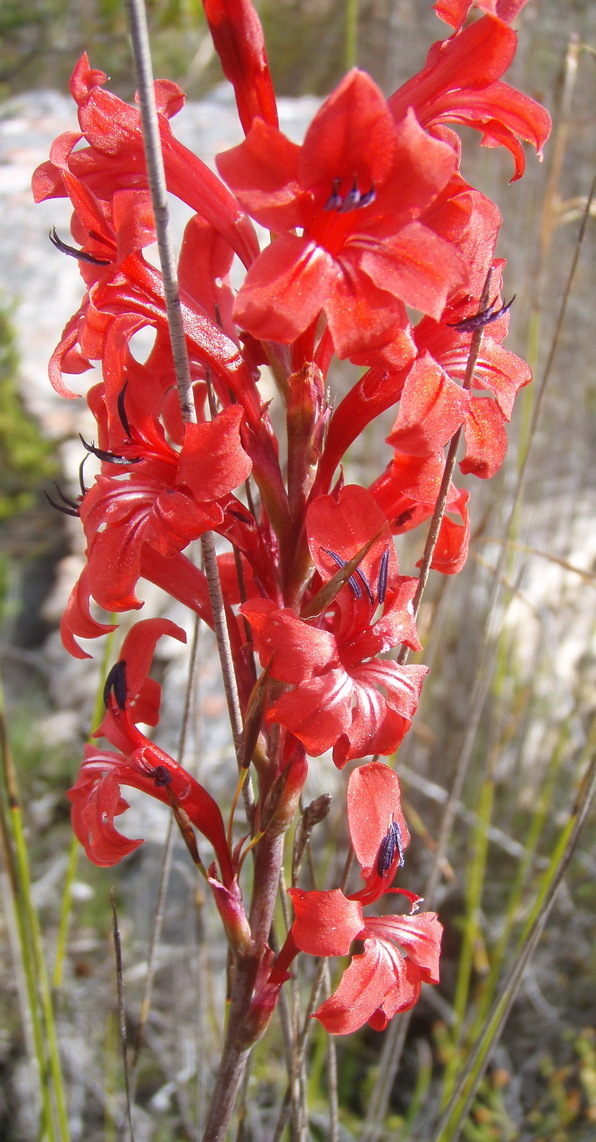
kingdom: Plantae
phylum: Tracheophyta
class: Liliopsida
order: Asparagales
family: Iridaceae
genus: Tritoniopsis
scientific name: Tritoniopsis pulchra
